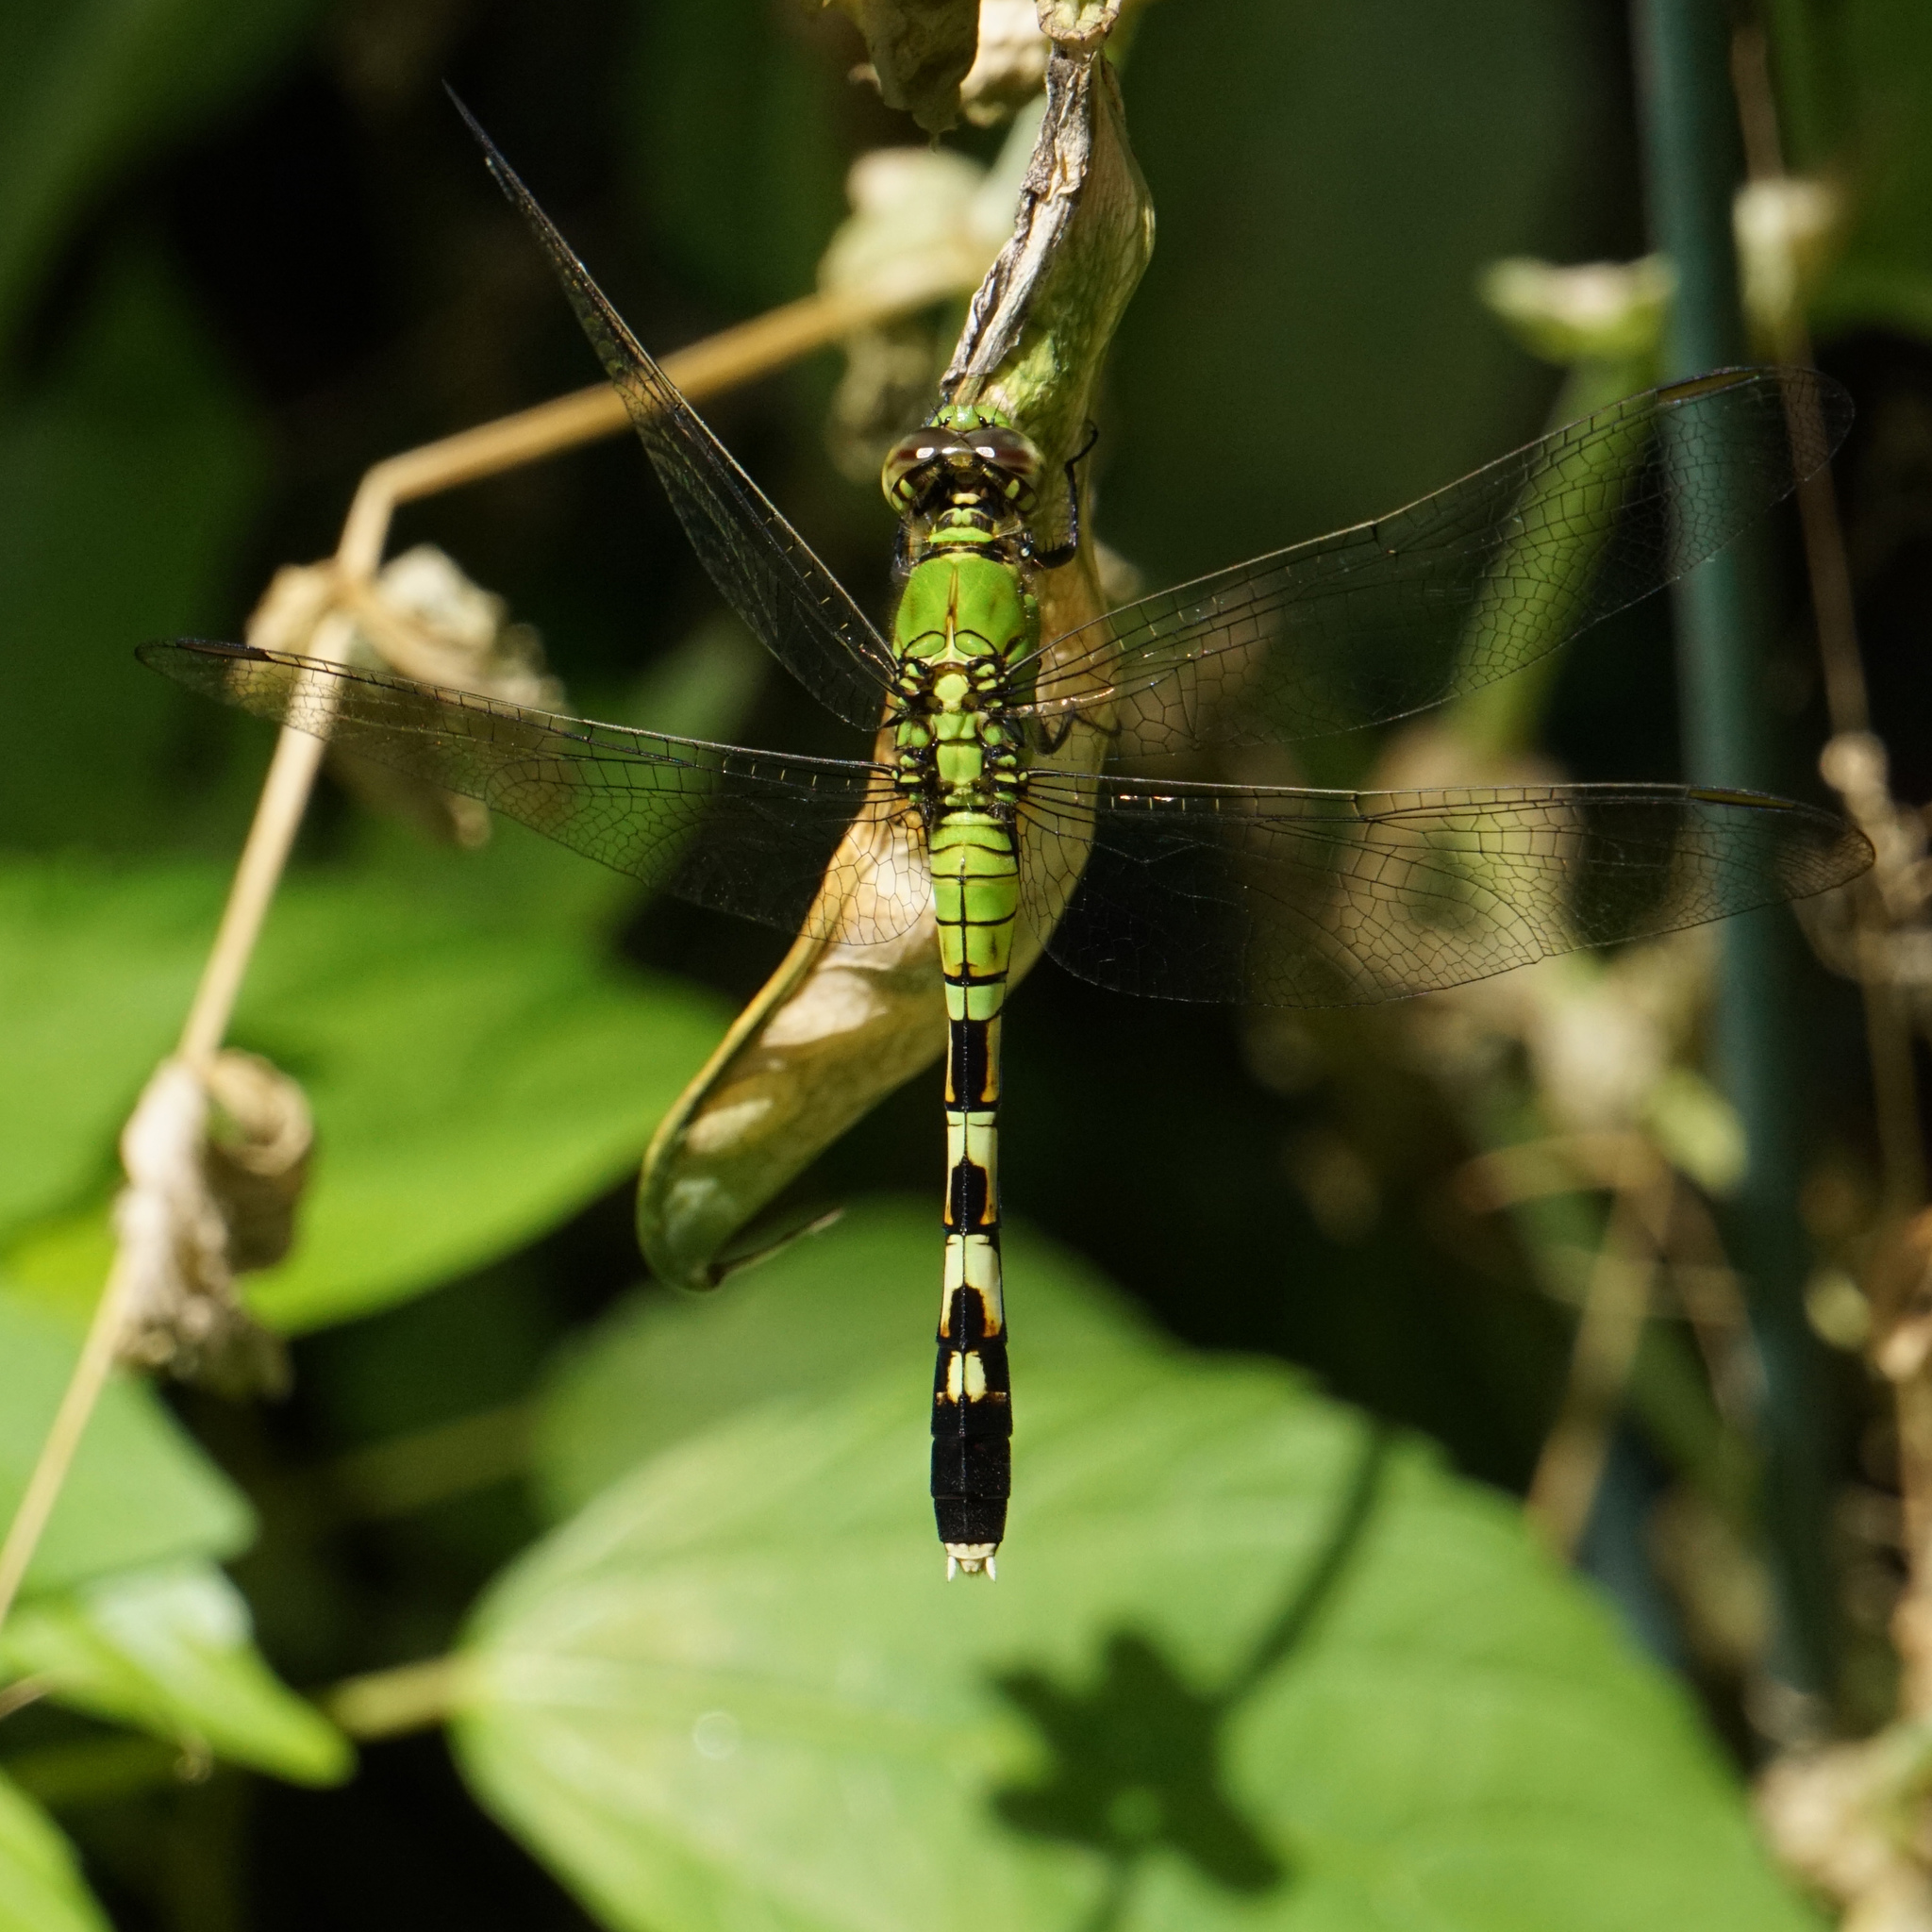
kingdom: Animalia
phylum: Arthropoda
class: Insecta
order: Odonata
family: Libellulidae
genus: Erythemis
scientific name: Erythemis simplicicollis
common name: Eastern pondhawk
